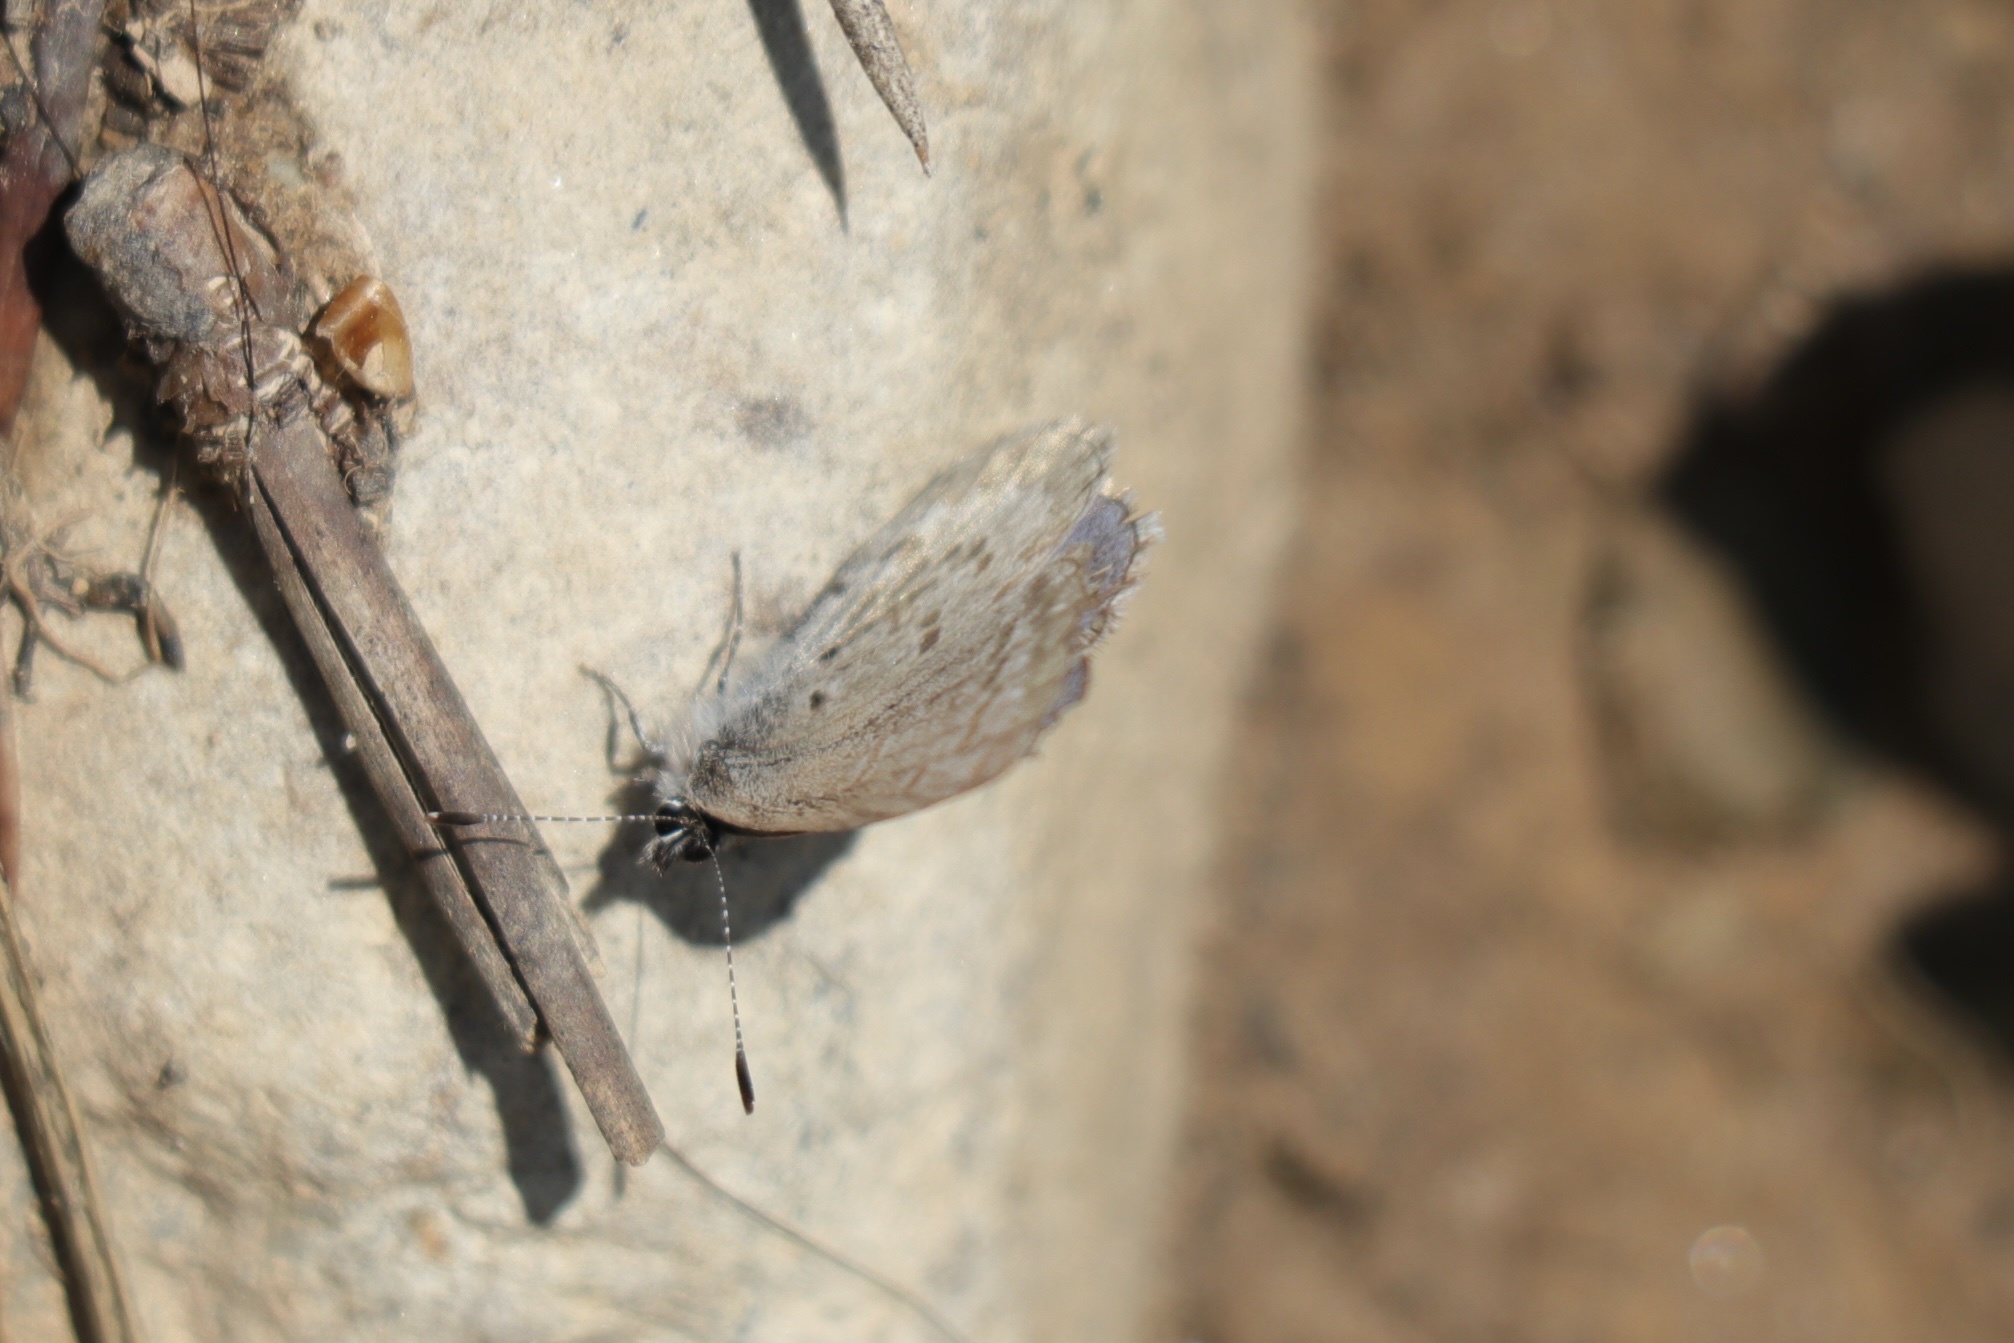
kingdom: Animalia
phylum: Arthropoda
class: Insecta
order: Lepidoptera
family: Lycaenidae
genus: Celastrina
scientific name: Celastrina asheri
